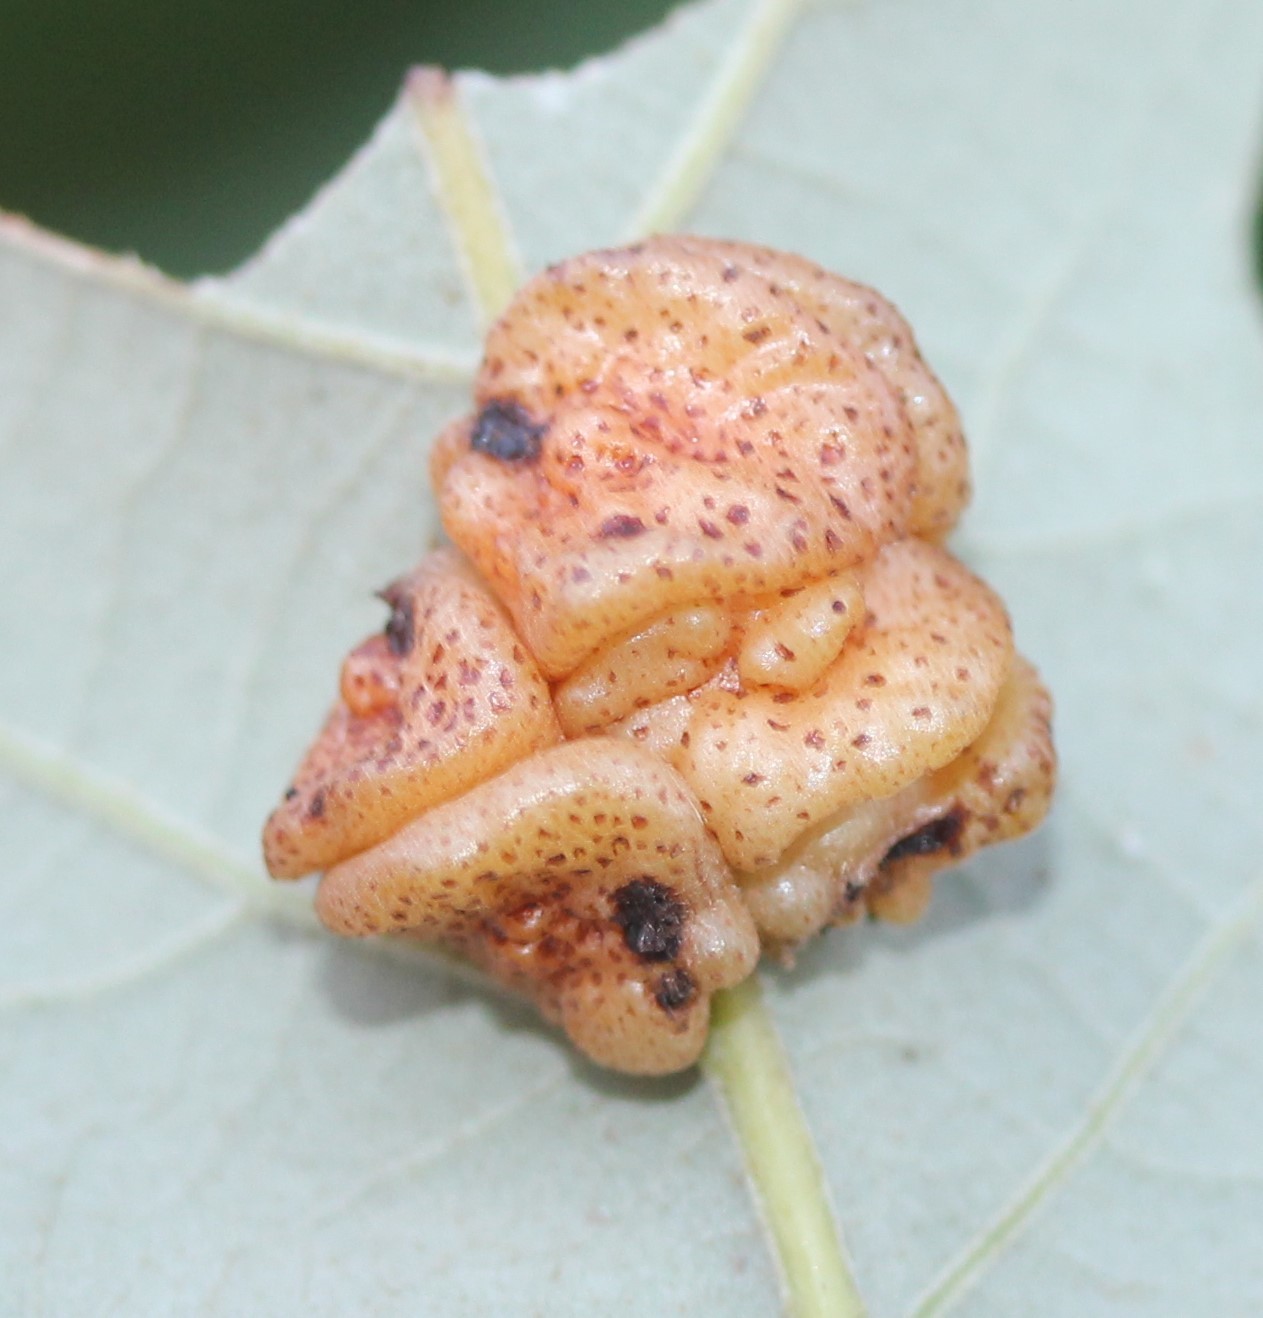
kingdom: Animalia
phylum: Arthropoda
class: Insecta
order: Hymenoptera
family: Cynipidae
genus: Andricus
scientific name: Andricus
